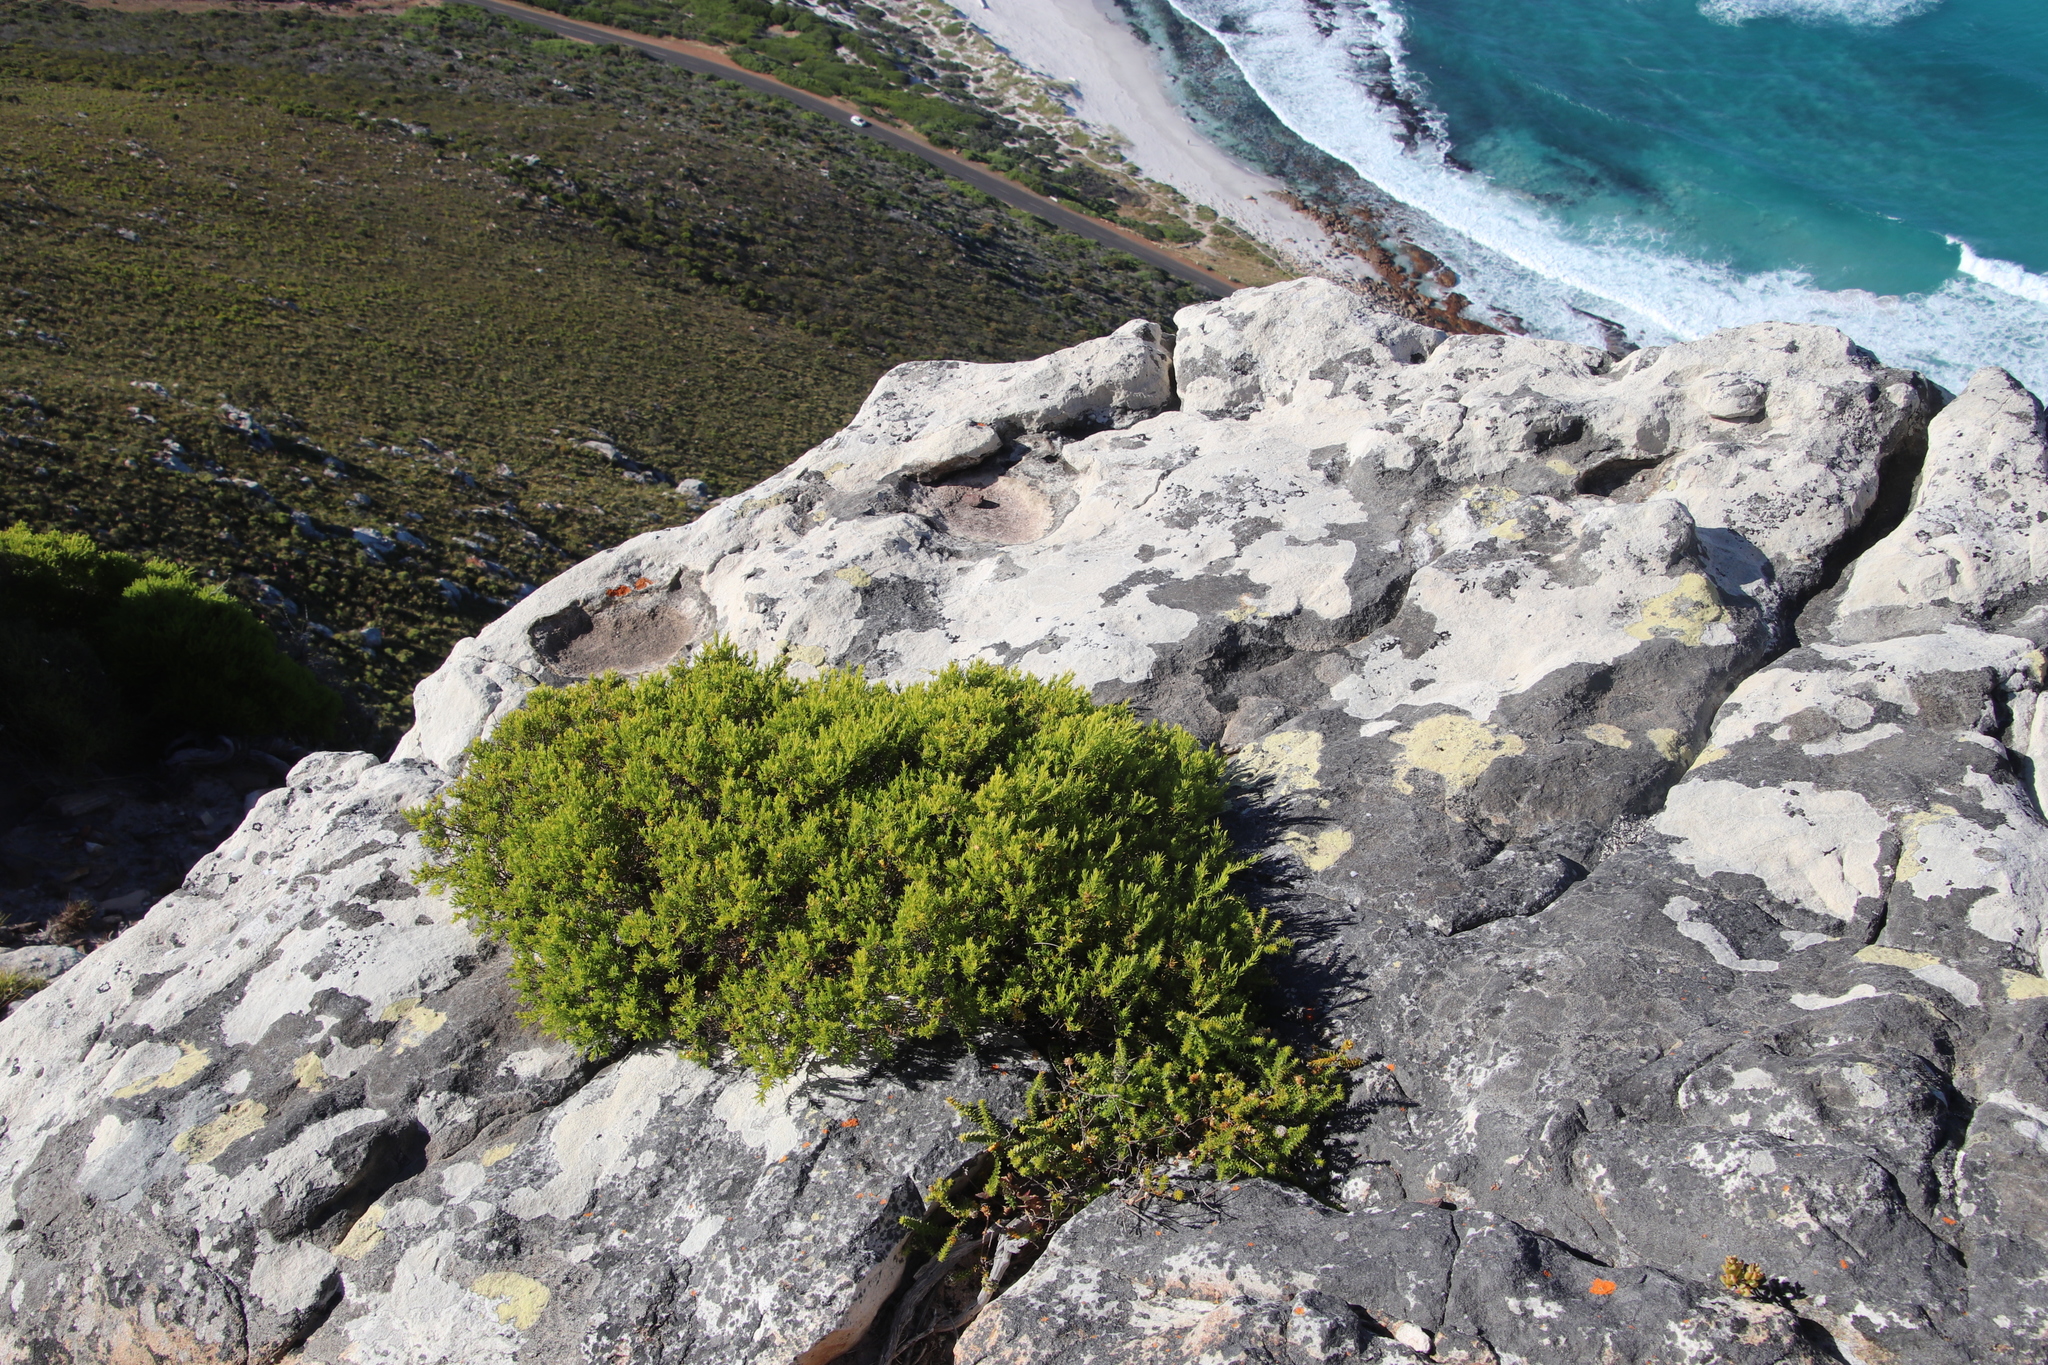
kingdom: Plantae
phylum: Tracheophyta
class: Magnoliopsida
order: Sapindales
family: Rutaceae
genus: Coleonema
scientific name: Coleonema album
